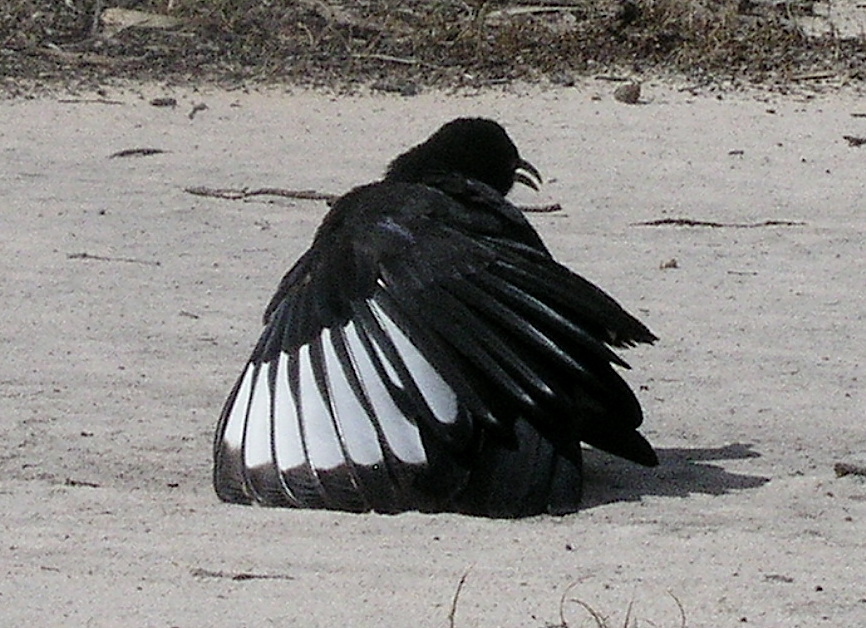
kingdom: Animalia
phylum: Chordata
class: Aves
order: Passeriformes
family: Corcoracidae
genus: Corcorax
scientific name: Corcorax melanoramphos
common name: White-winged chough
